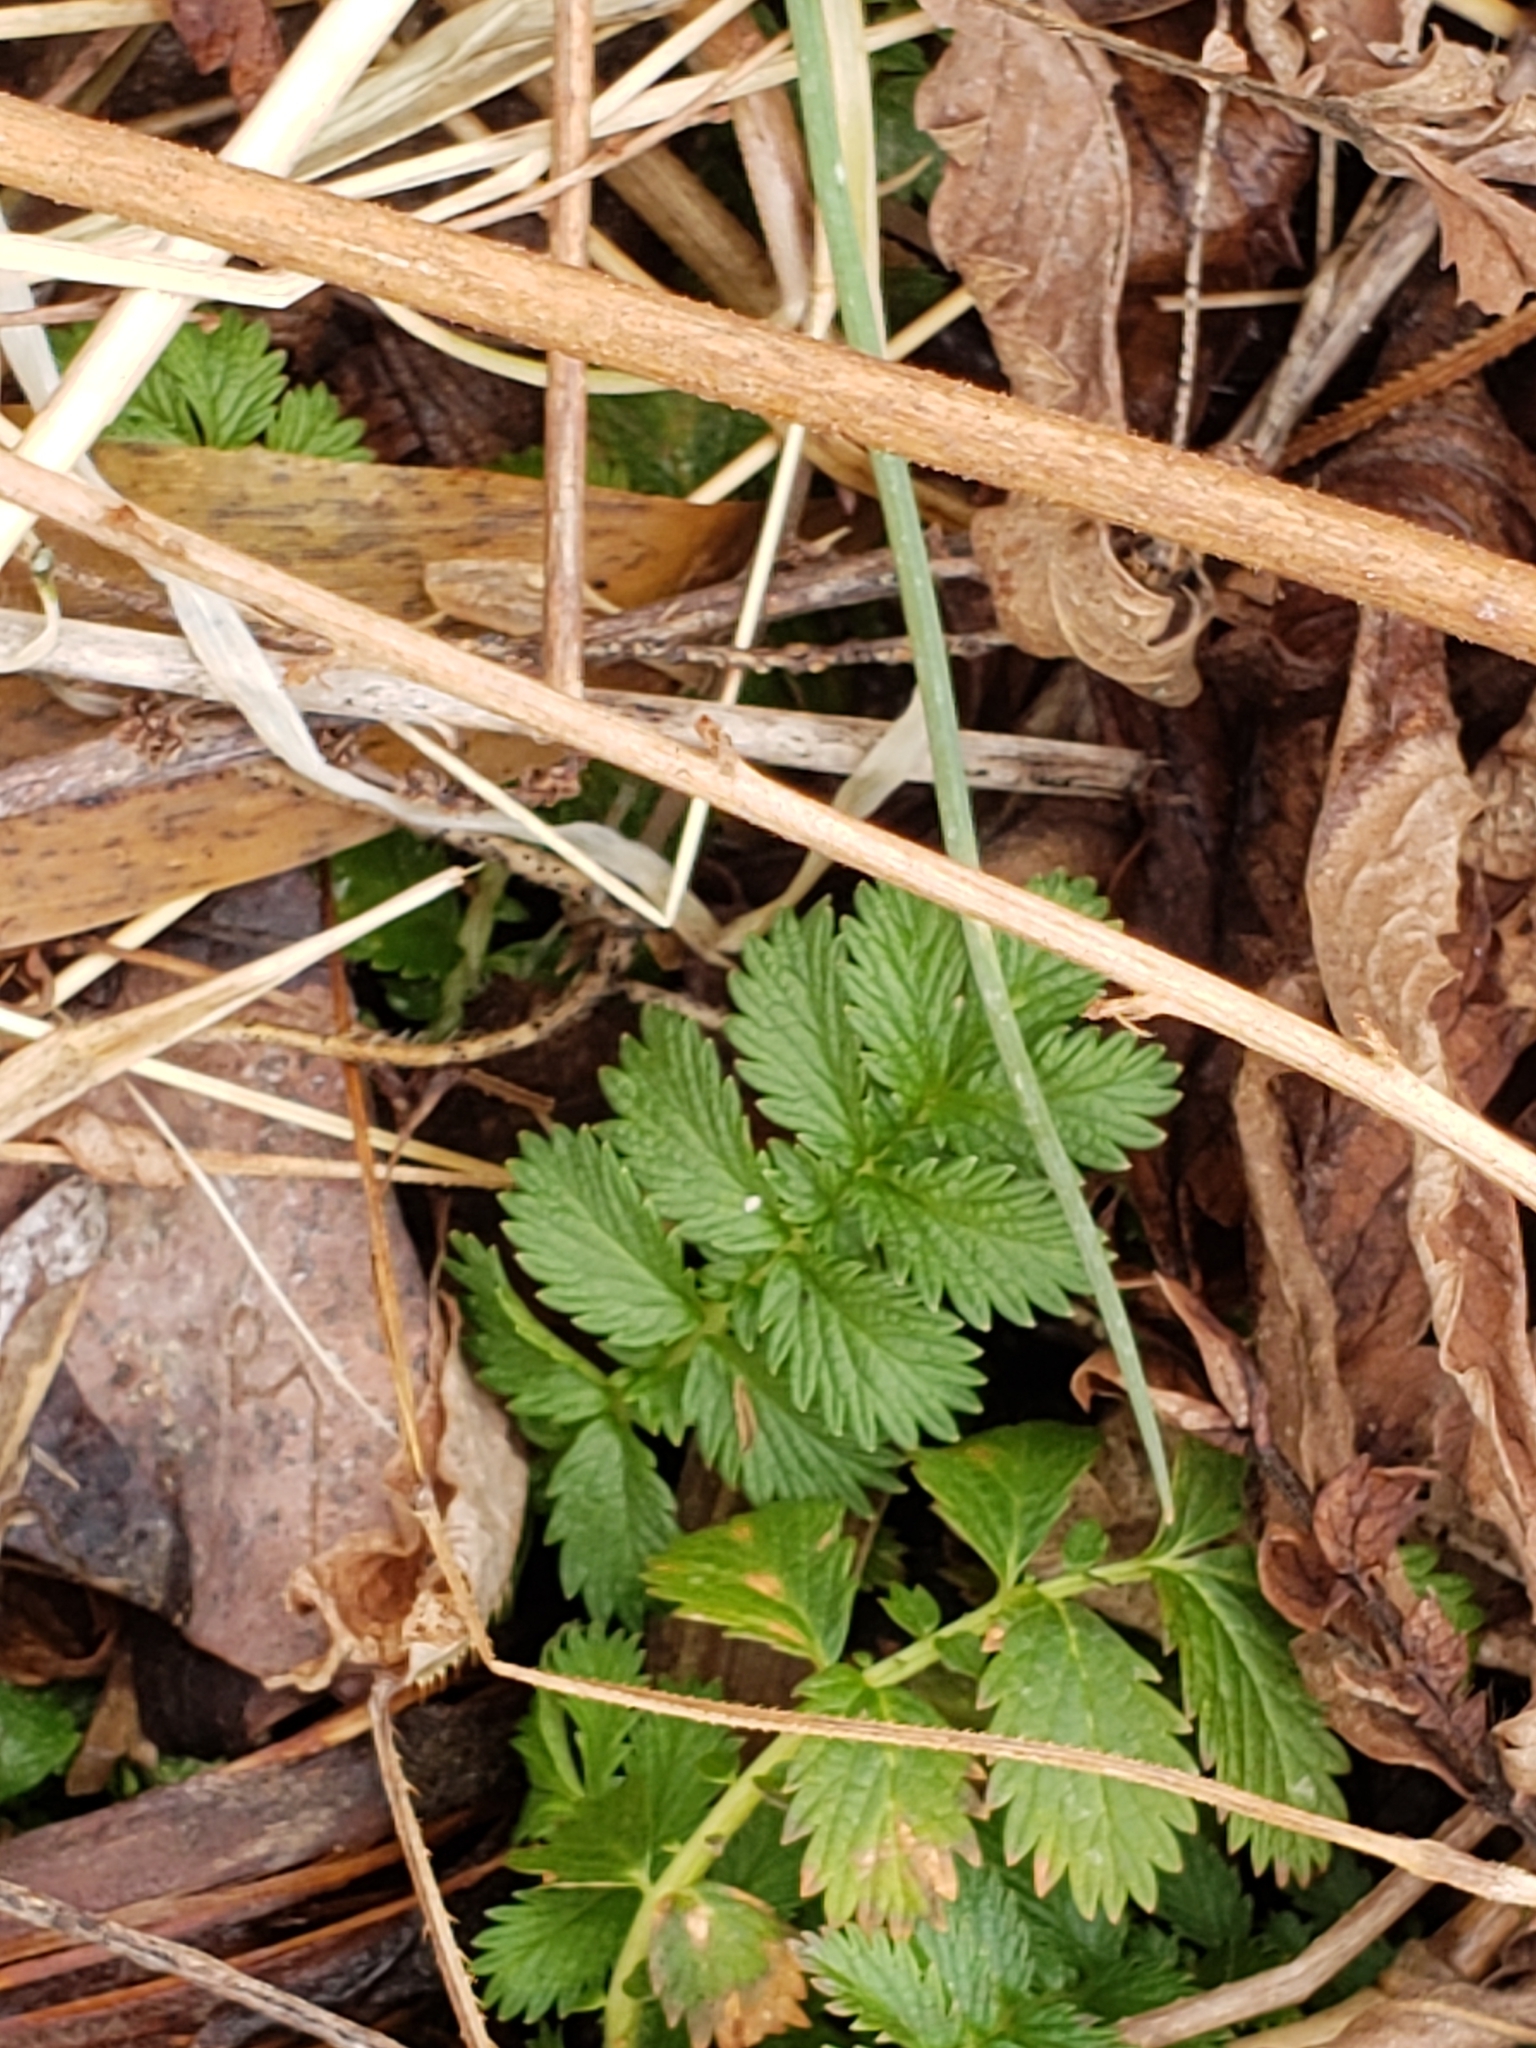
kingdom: Plantae
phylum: Tracheophyta
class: Magnoliopsida
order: Rosales
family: Rosaceae
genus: Agrimonia
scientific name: Agrimonia parviflora
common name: Harvest-lice
